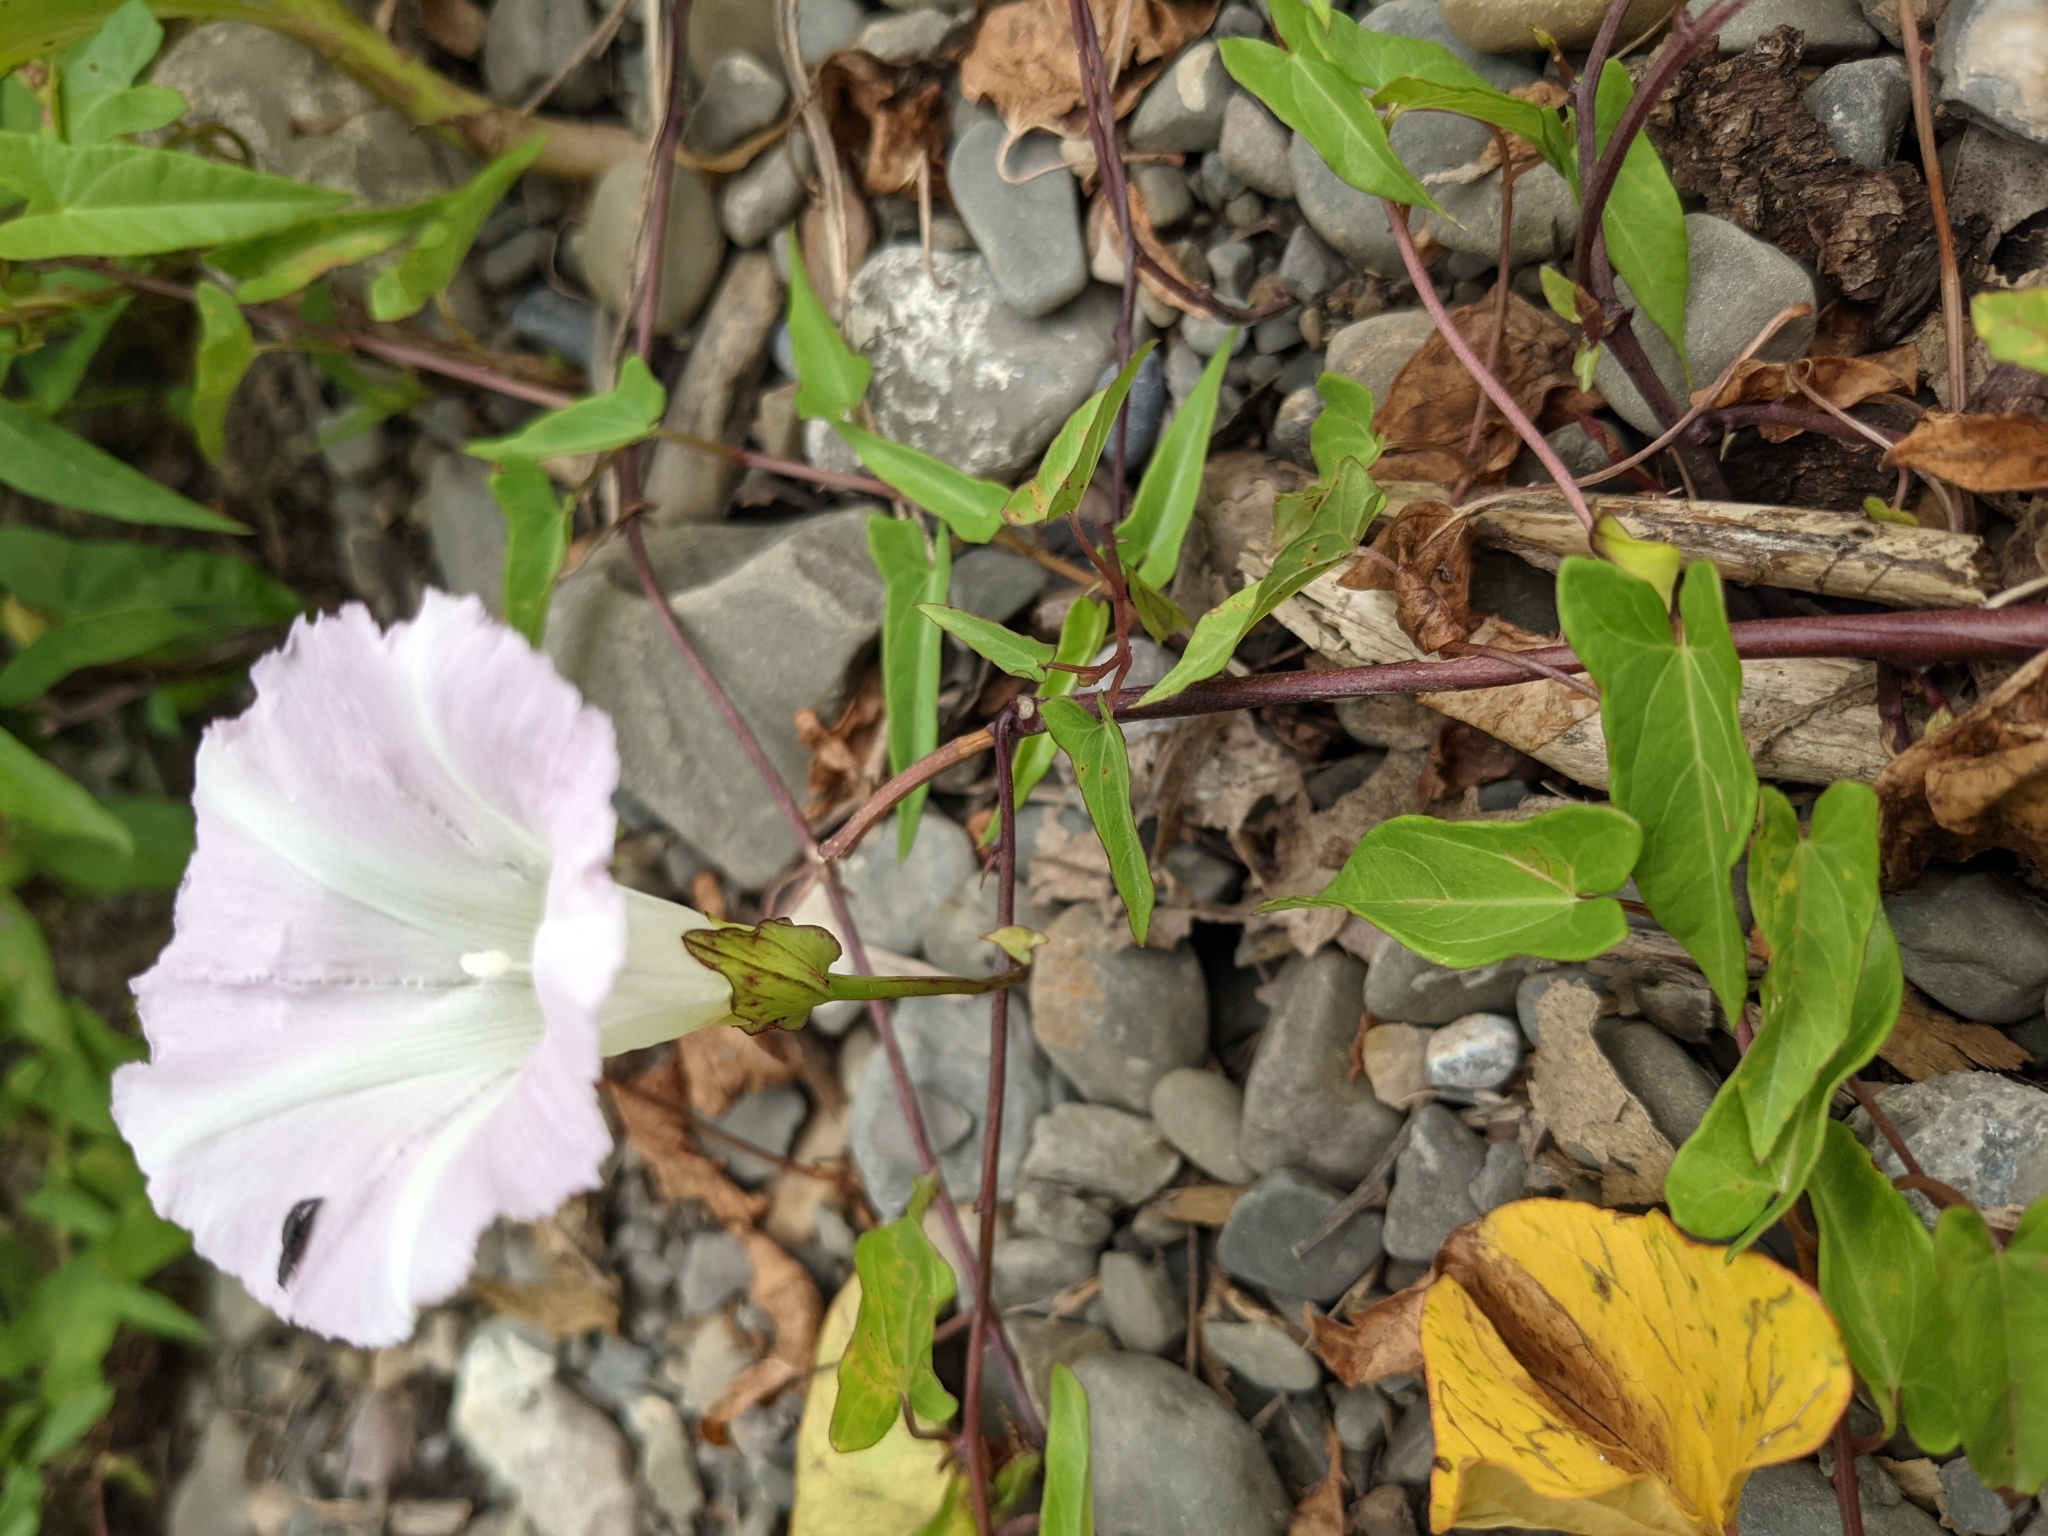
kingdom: Plantae
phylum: Tracheophyta
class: Magnoliopsida
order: Solanales
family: Convolvulaceae
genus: Calystegia
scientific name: Calystegia sepium
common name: Hedge bindweed
